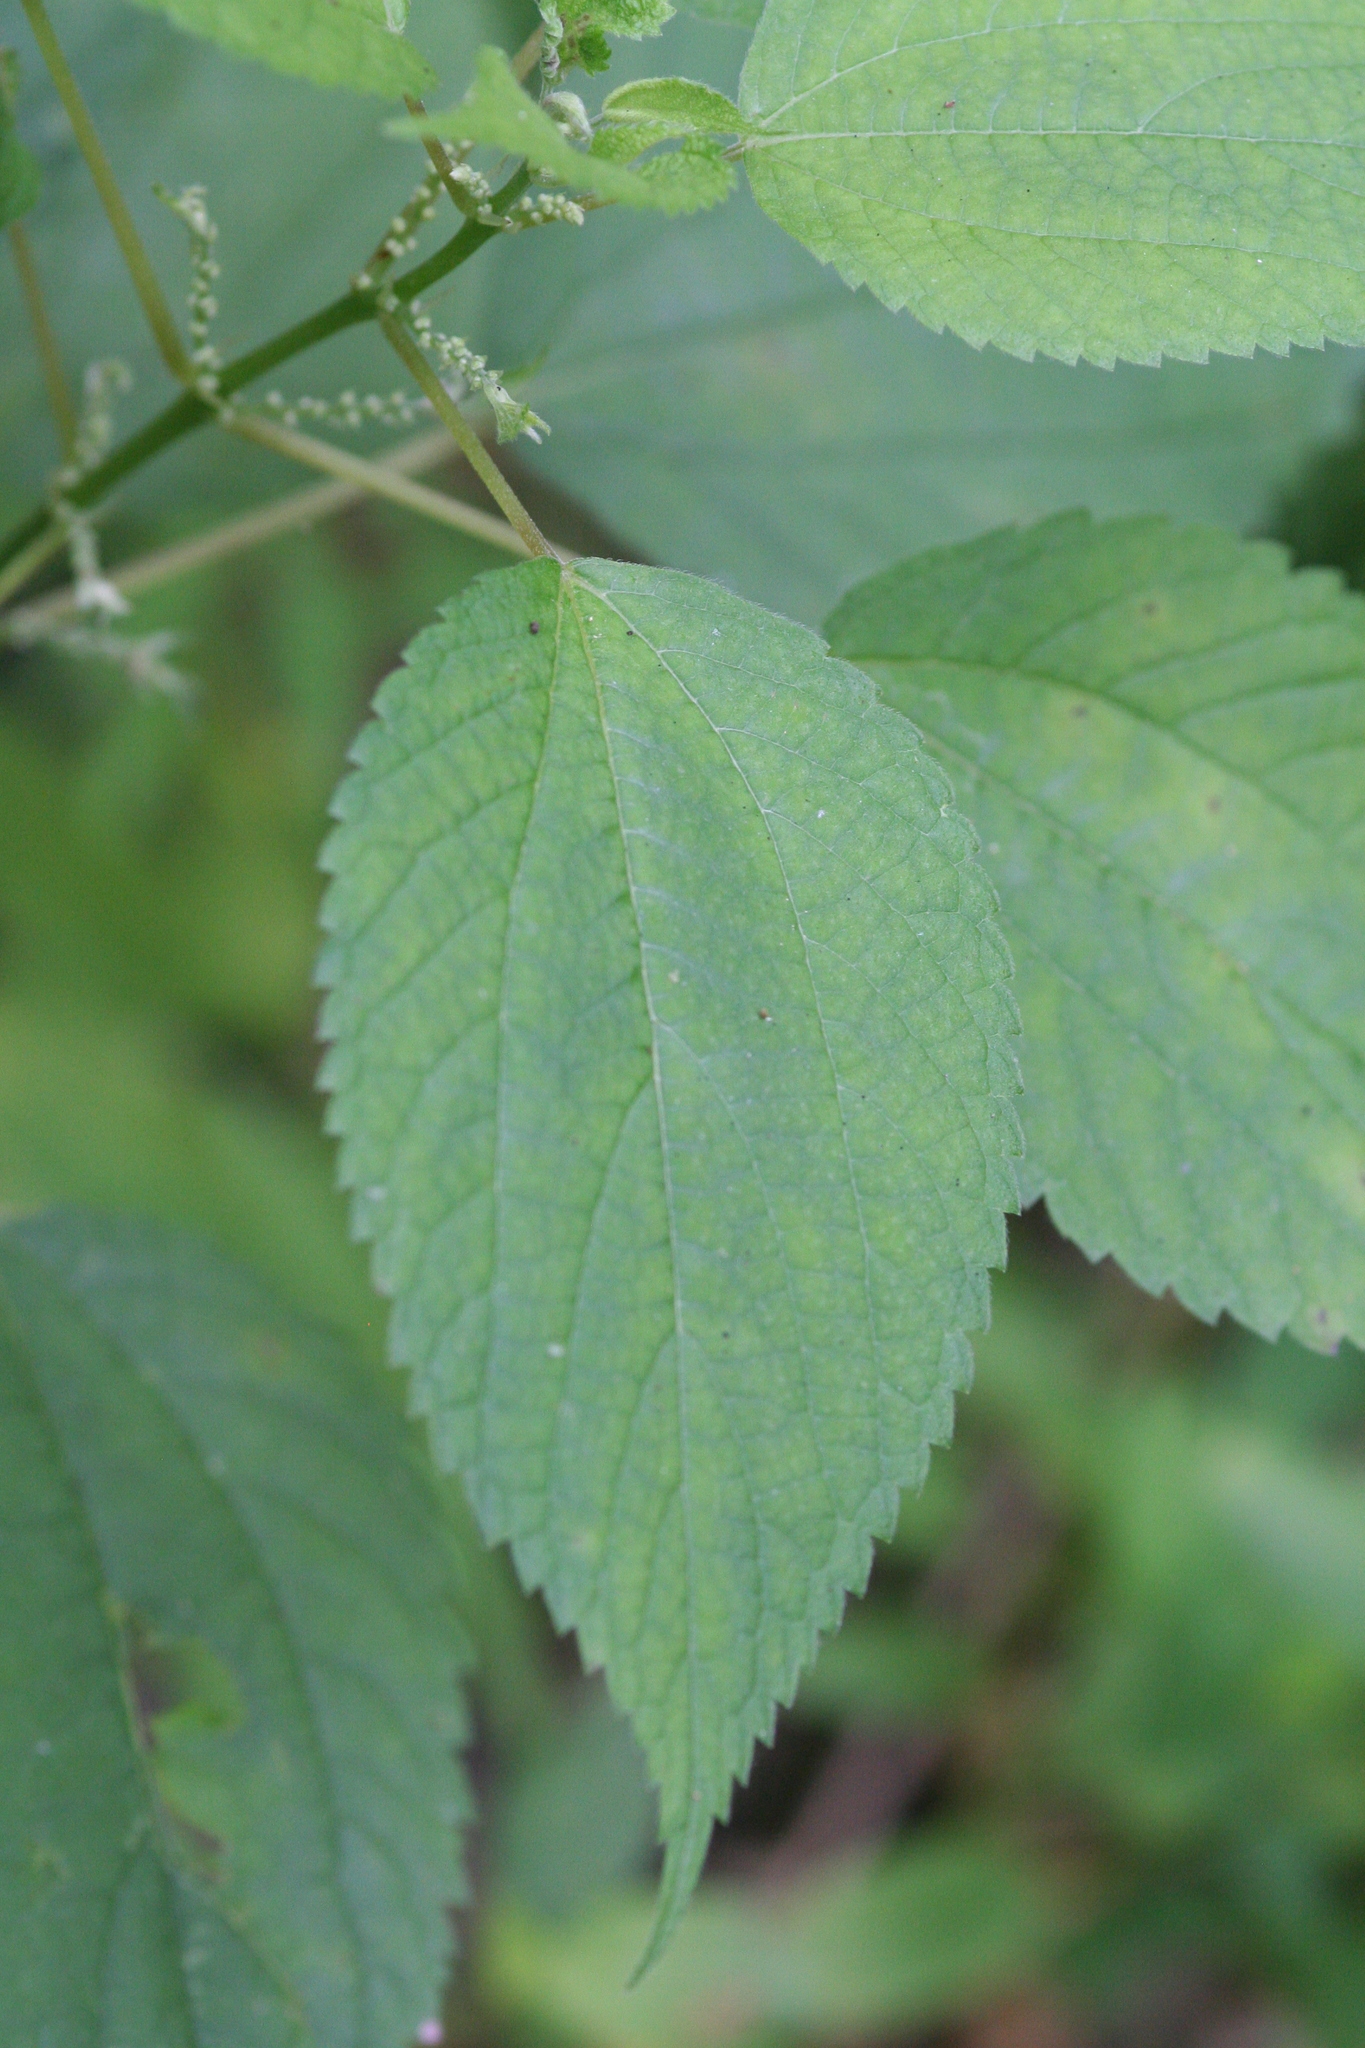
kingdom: Plantae
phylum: Tracheophyta
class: Magnoliopsida
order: Rosales
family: Urticaceae
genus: Boehmeria
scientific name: Boehmeria cylindrica
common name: Bog-hemp
